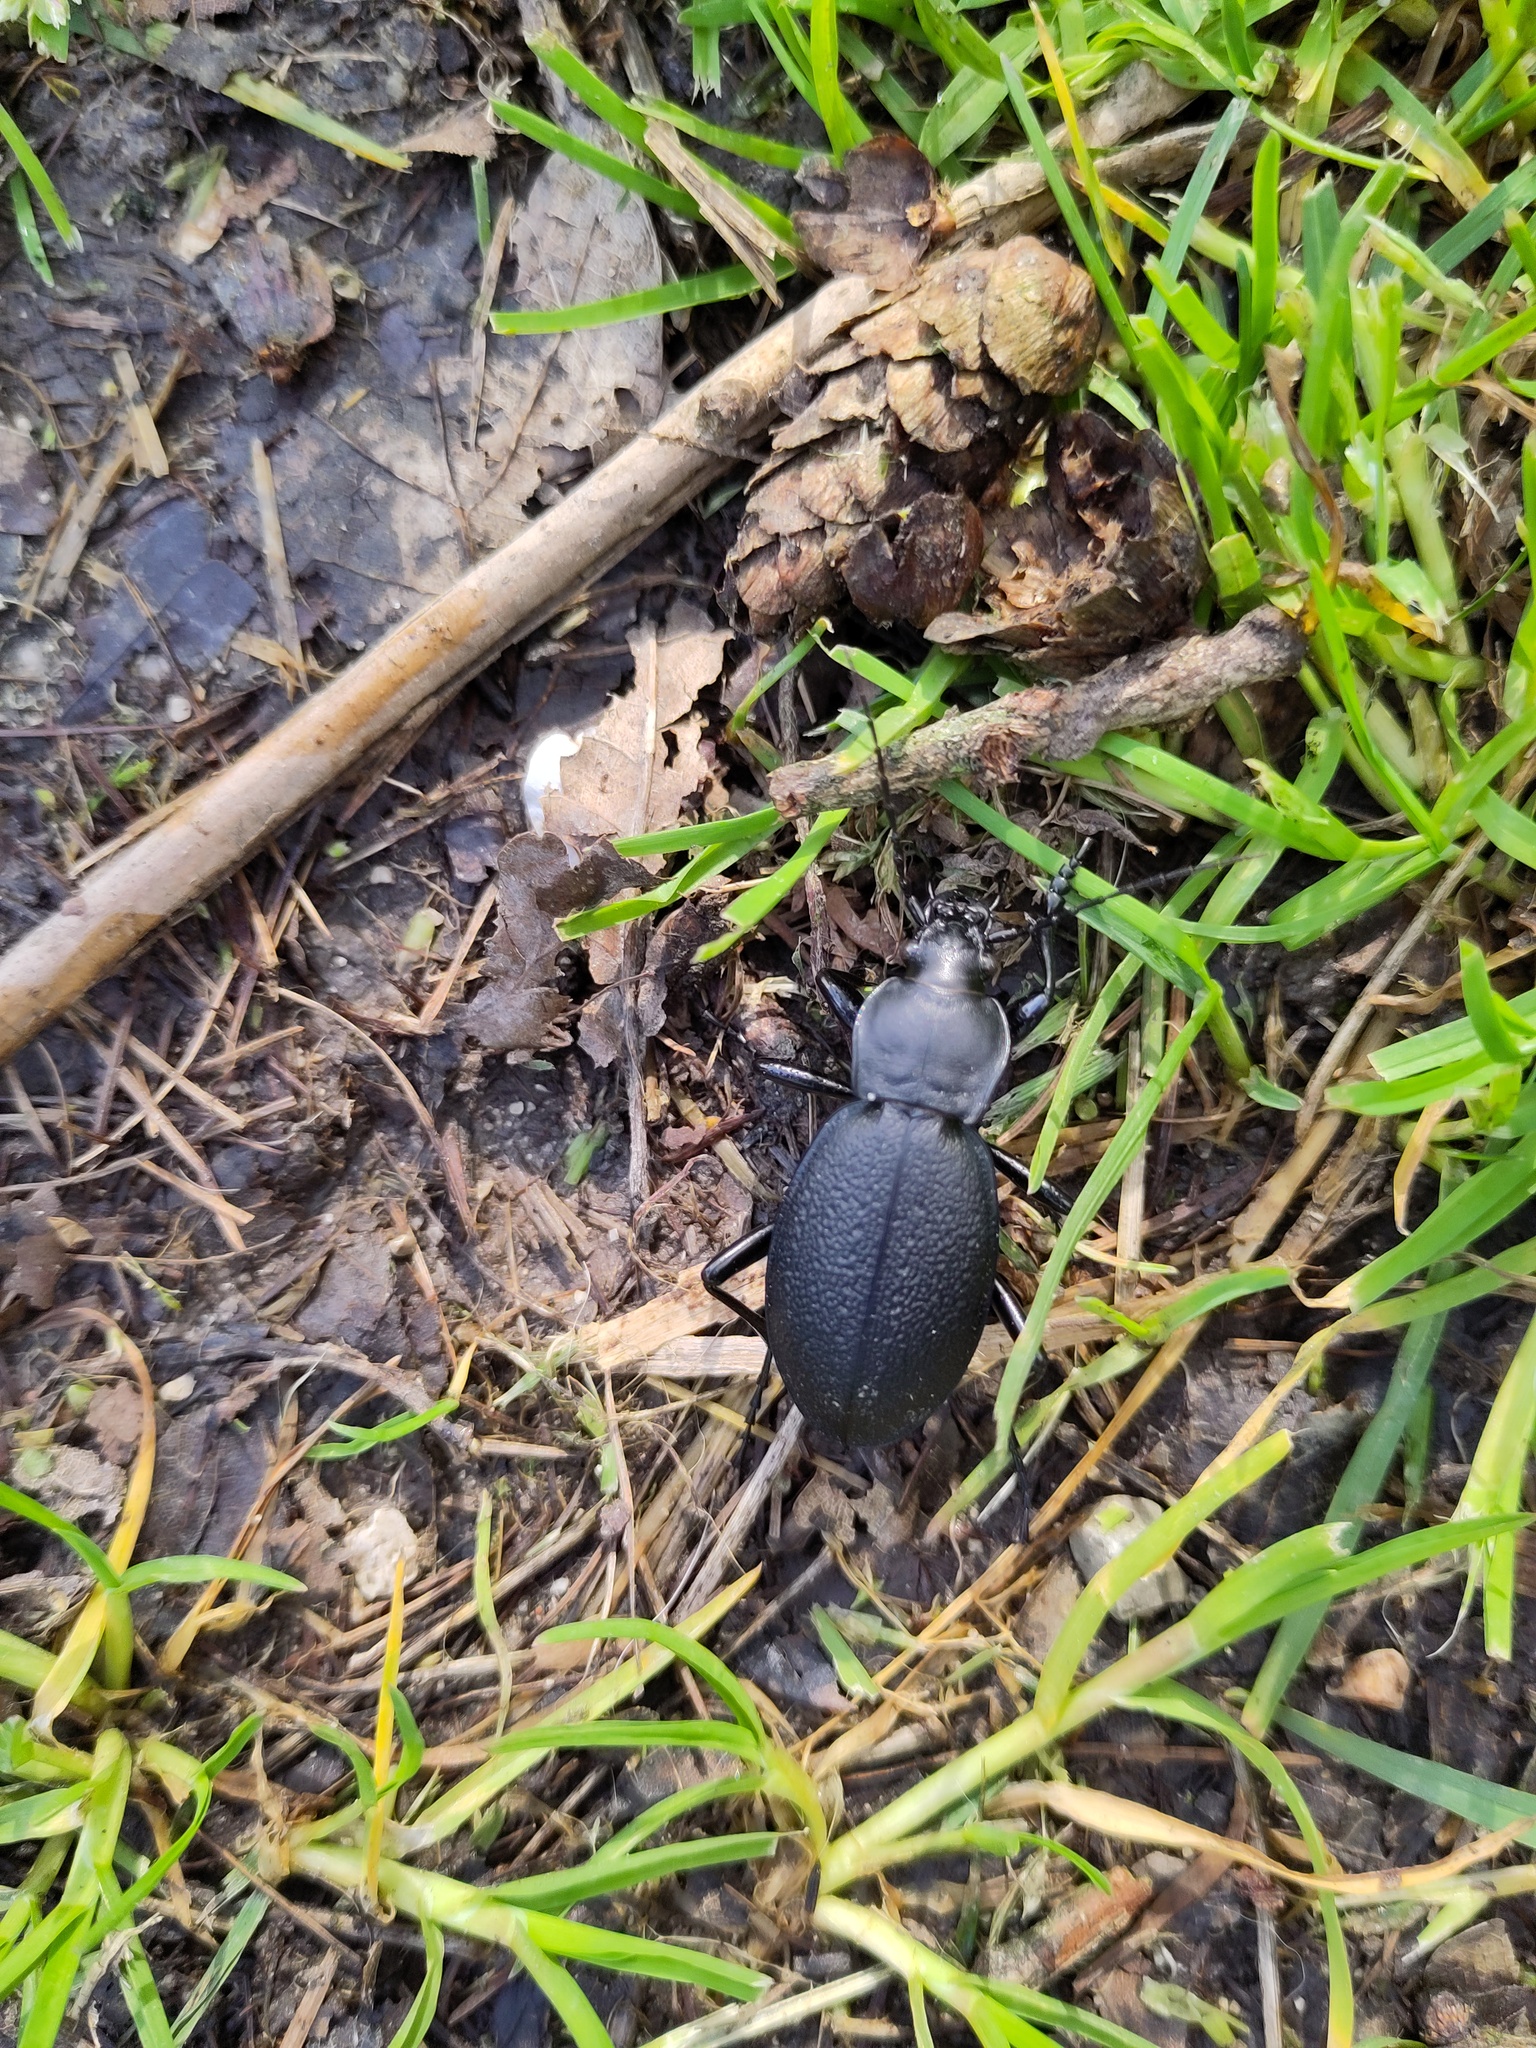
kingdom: Animalia
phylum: Arthropoda
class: Insecta
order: Coleoptera
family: Carabidae
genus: Carabus
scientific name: Carabus coriaceus
